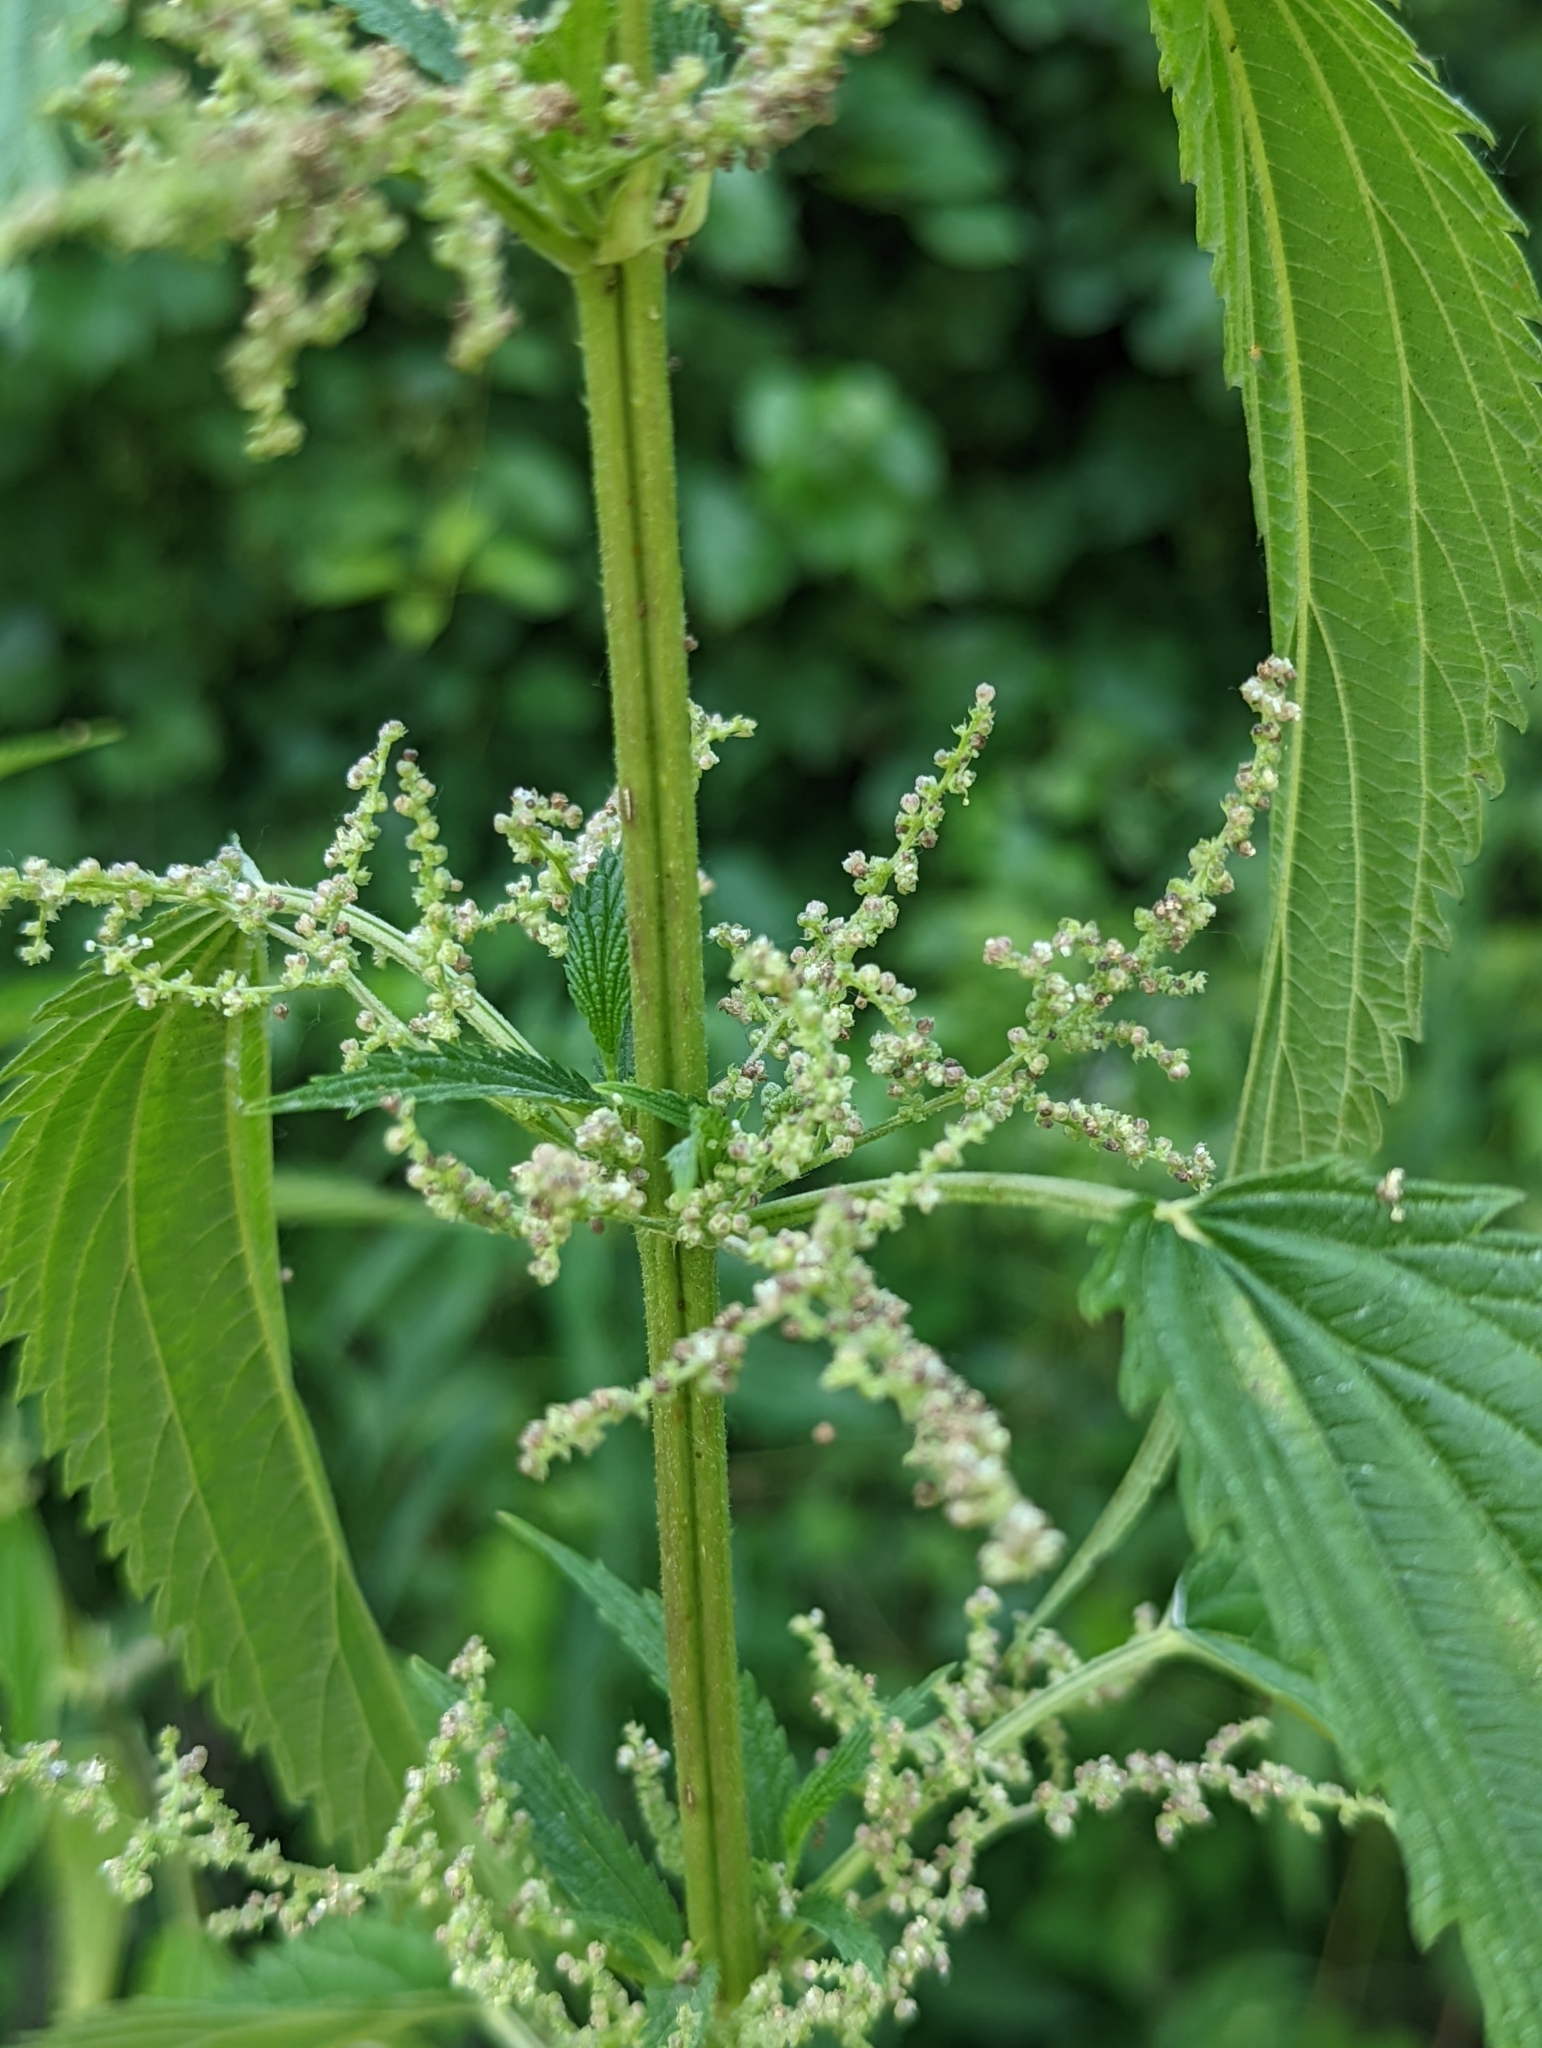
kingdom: Plantae
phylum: Tracheophyta
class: Magnoliopsida
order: Rosales
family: Urticaceae
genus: Urtica
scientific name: Urtica gracilis
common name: Slender stinging nettle
